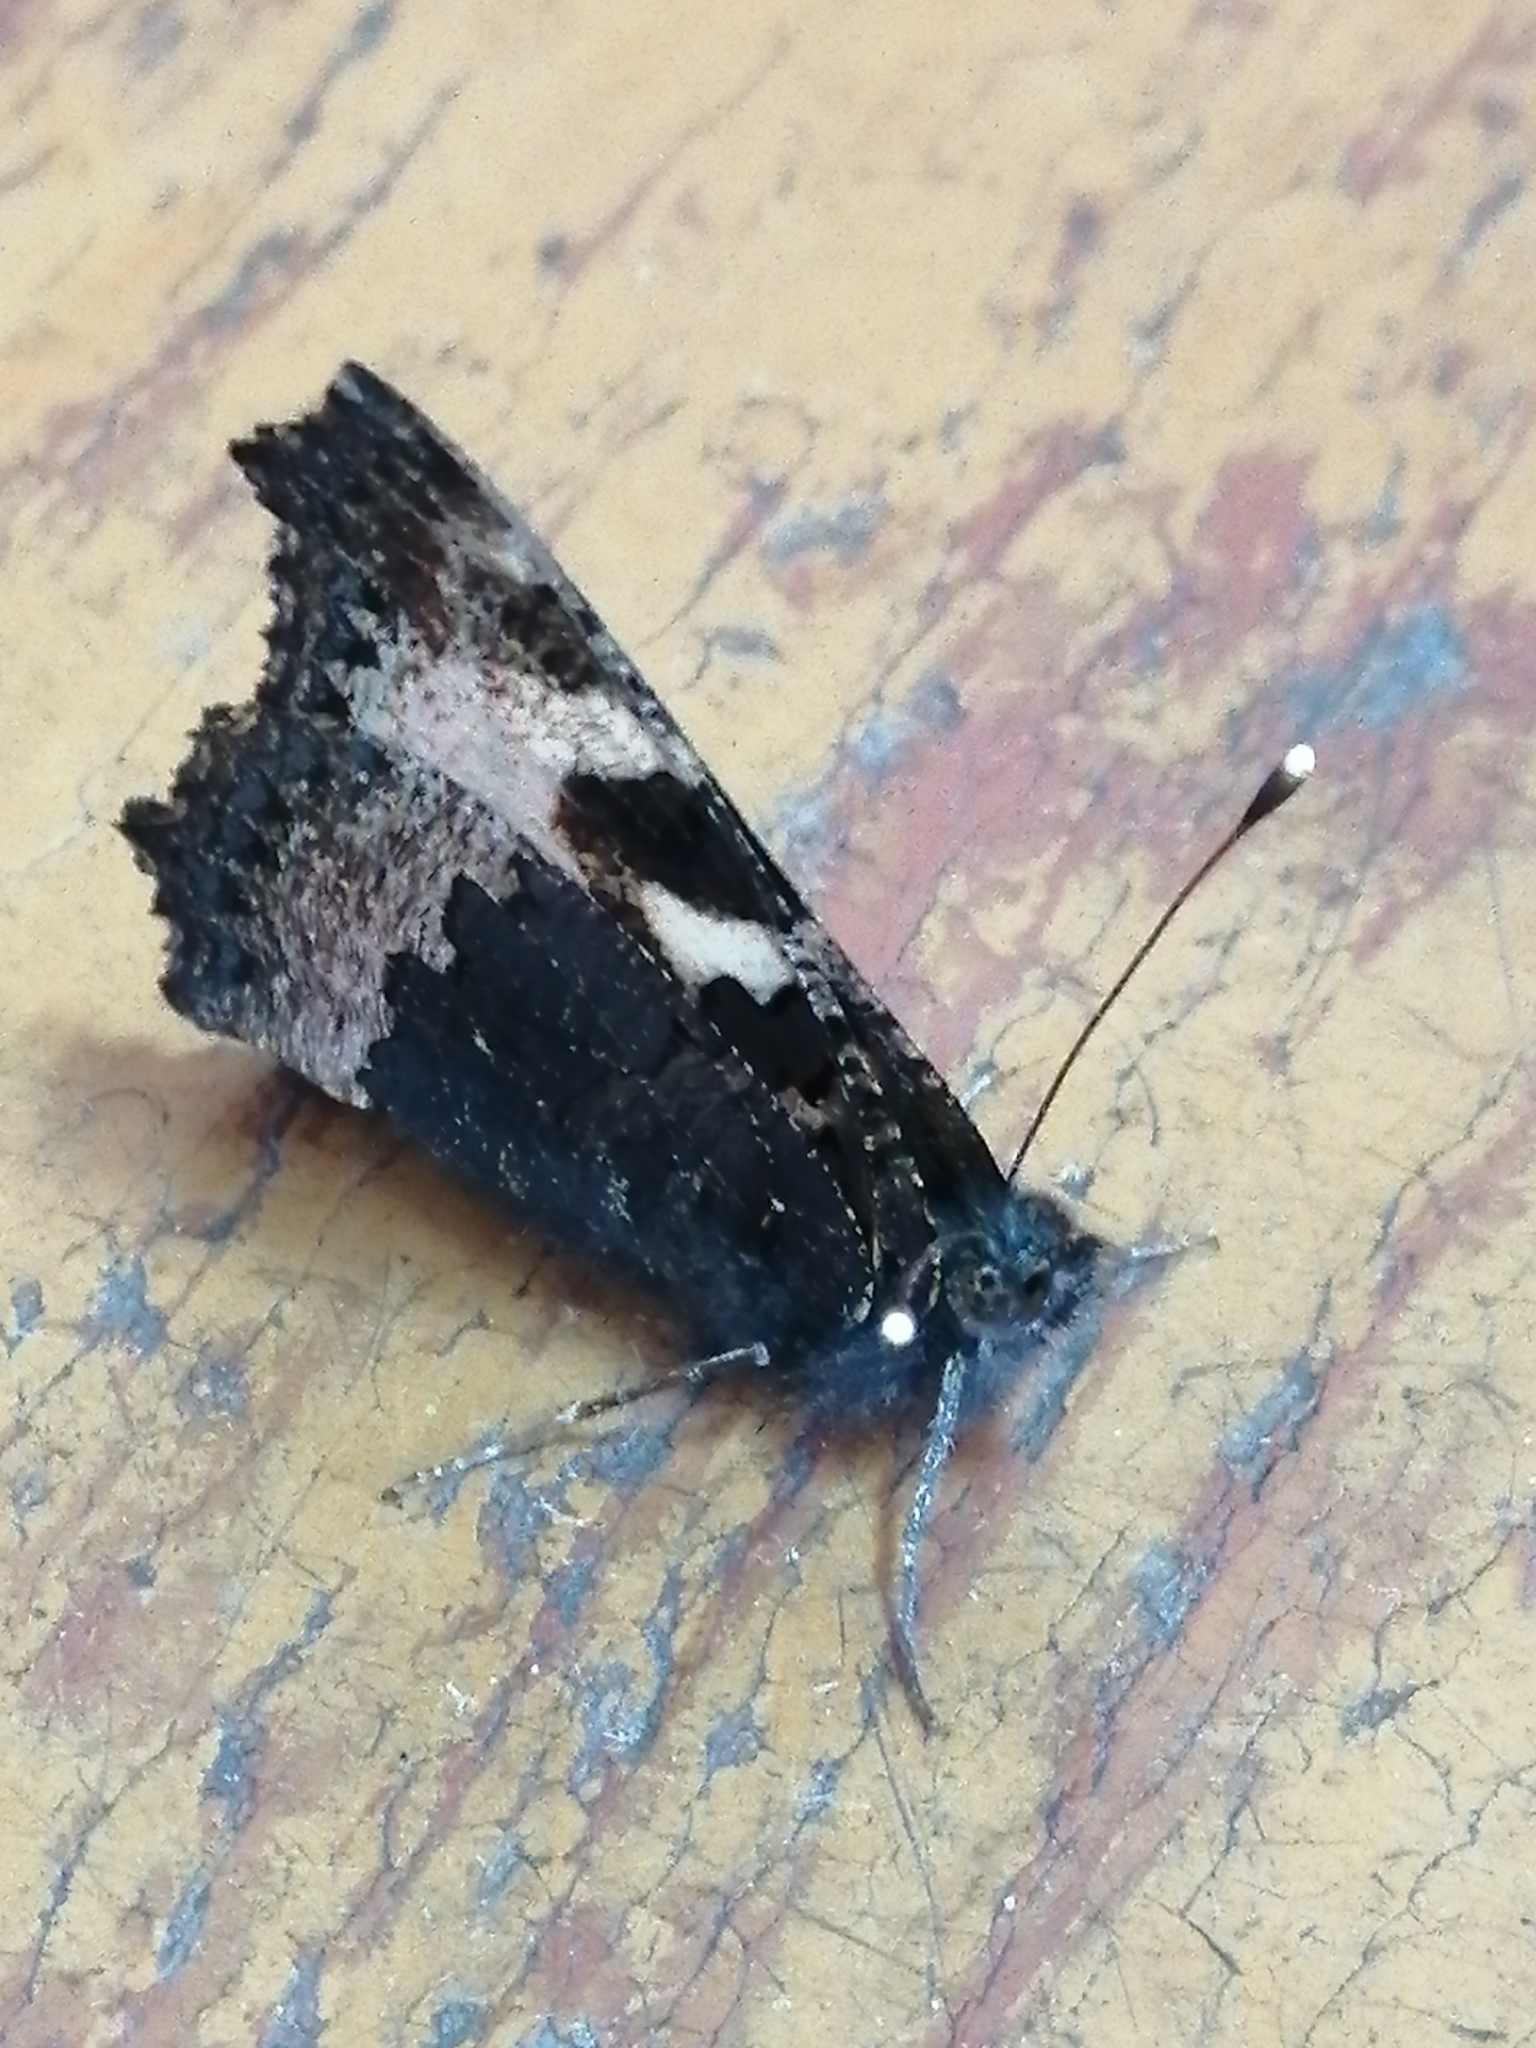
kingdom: Animalia
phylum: Arthropoda
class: Insecta
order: Lepidoptera
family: Nymphalidae
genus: Aglais
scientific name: Aglais urticae
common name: Small tortoiseshell
